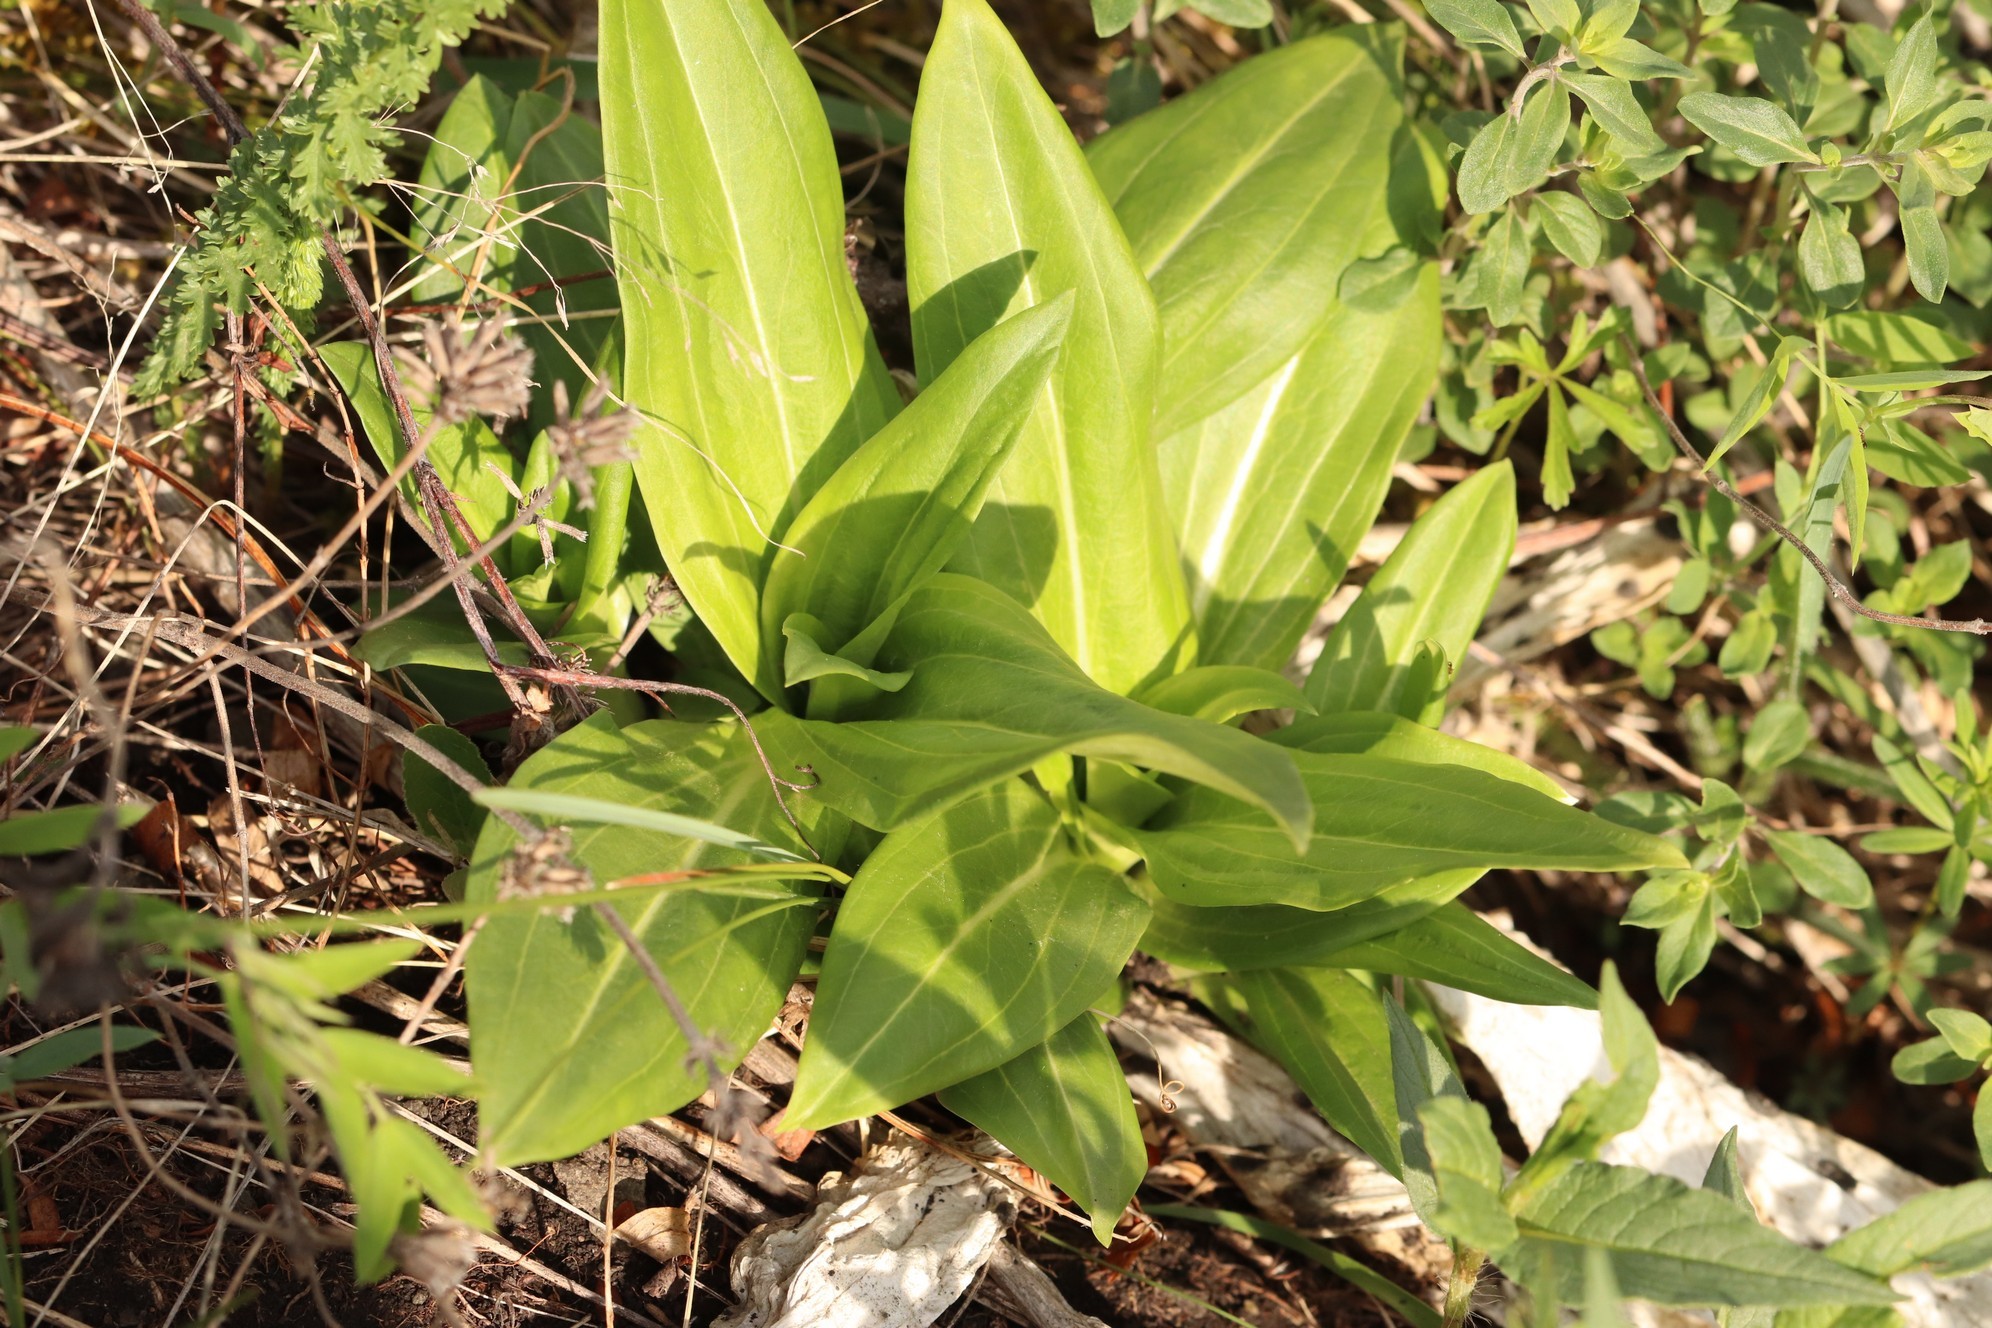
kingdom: Plantae
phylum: Tracheophyta
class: Magnoliopsida
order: Gentianales
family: Gentianaceae
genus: Gentiana
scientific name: Gentiana macrophylla
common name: Large-leaf gentian
